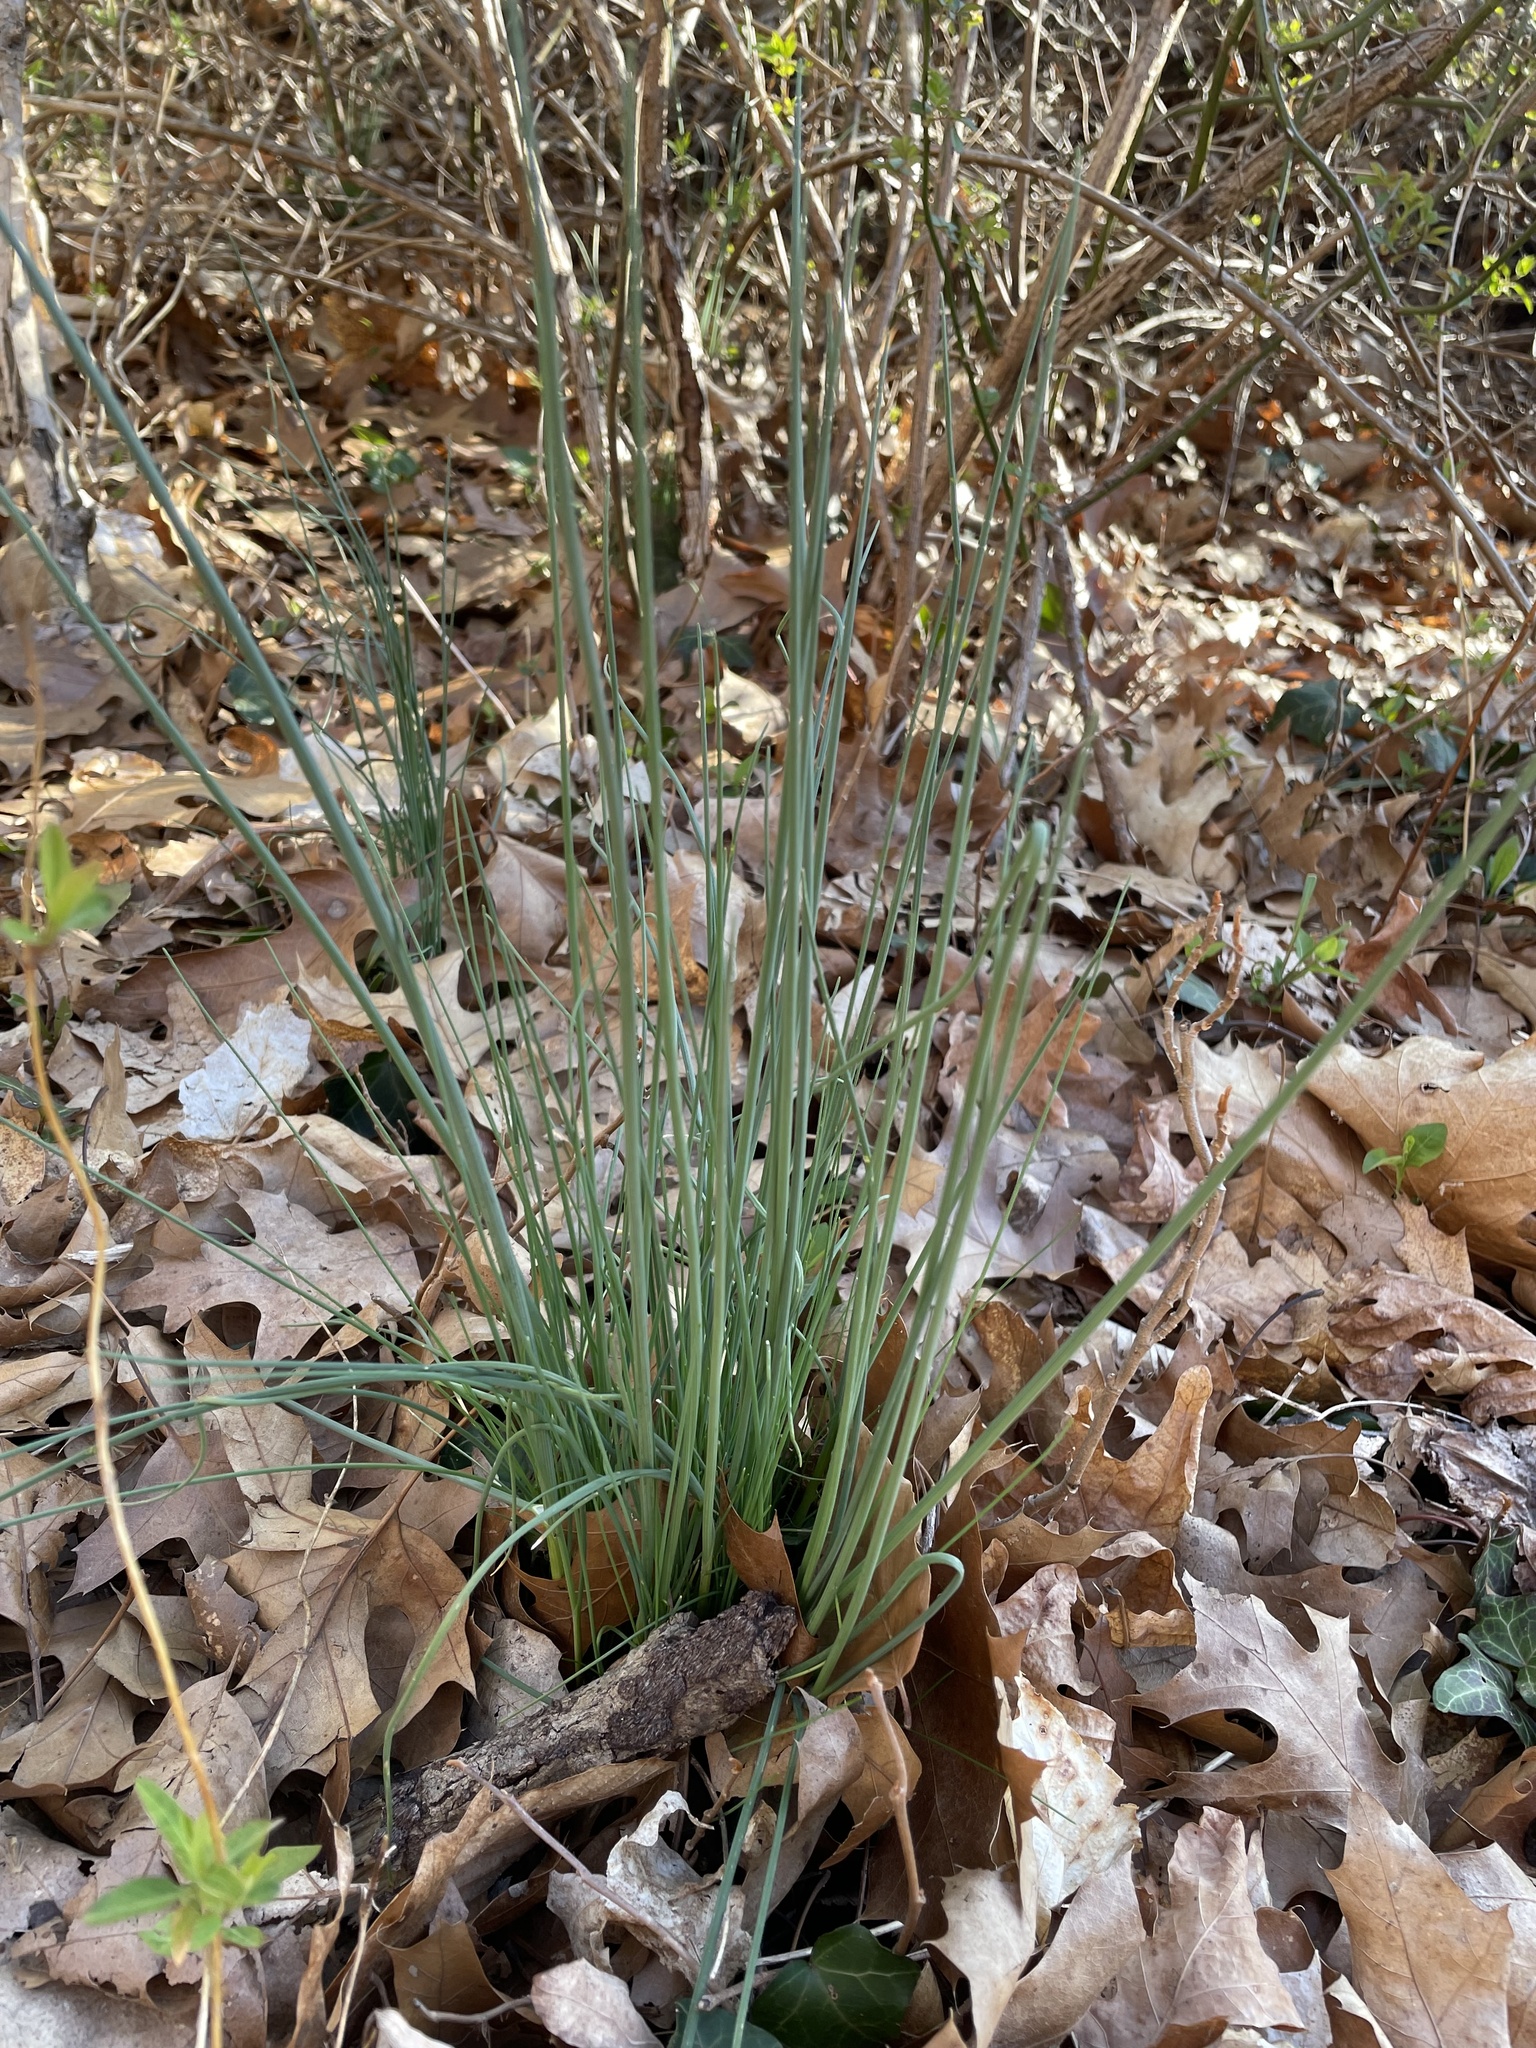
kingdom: Plantae
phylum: Tracheophyta
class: Liliopsida
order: Asparagales
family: Amaryllidaceae
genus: Allium
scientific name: Allium vineale
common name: Crow garlic
